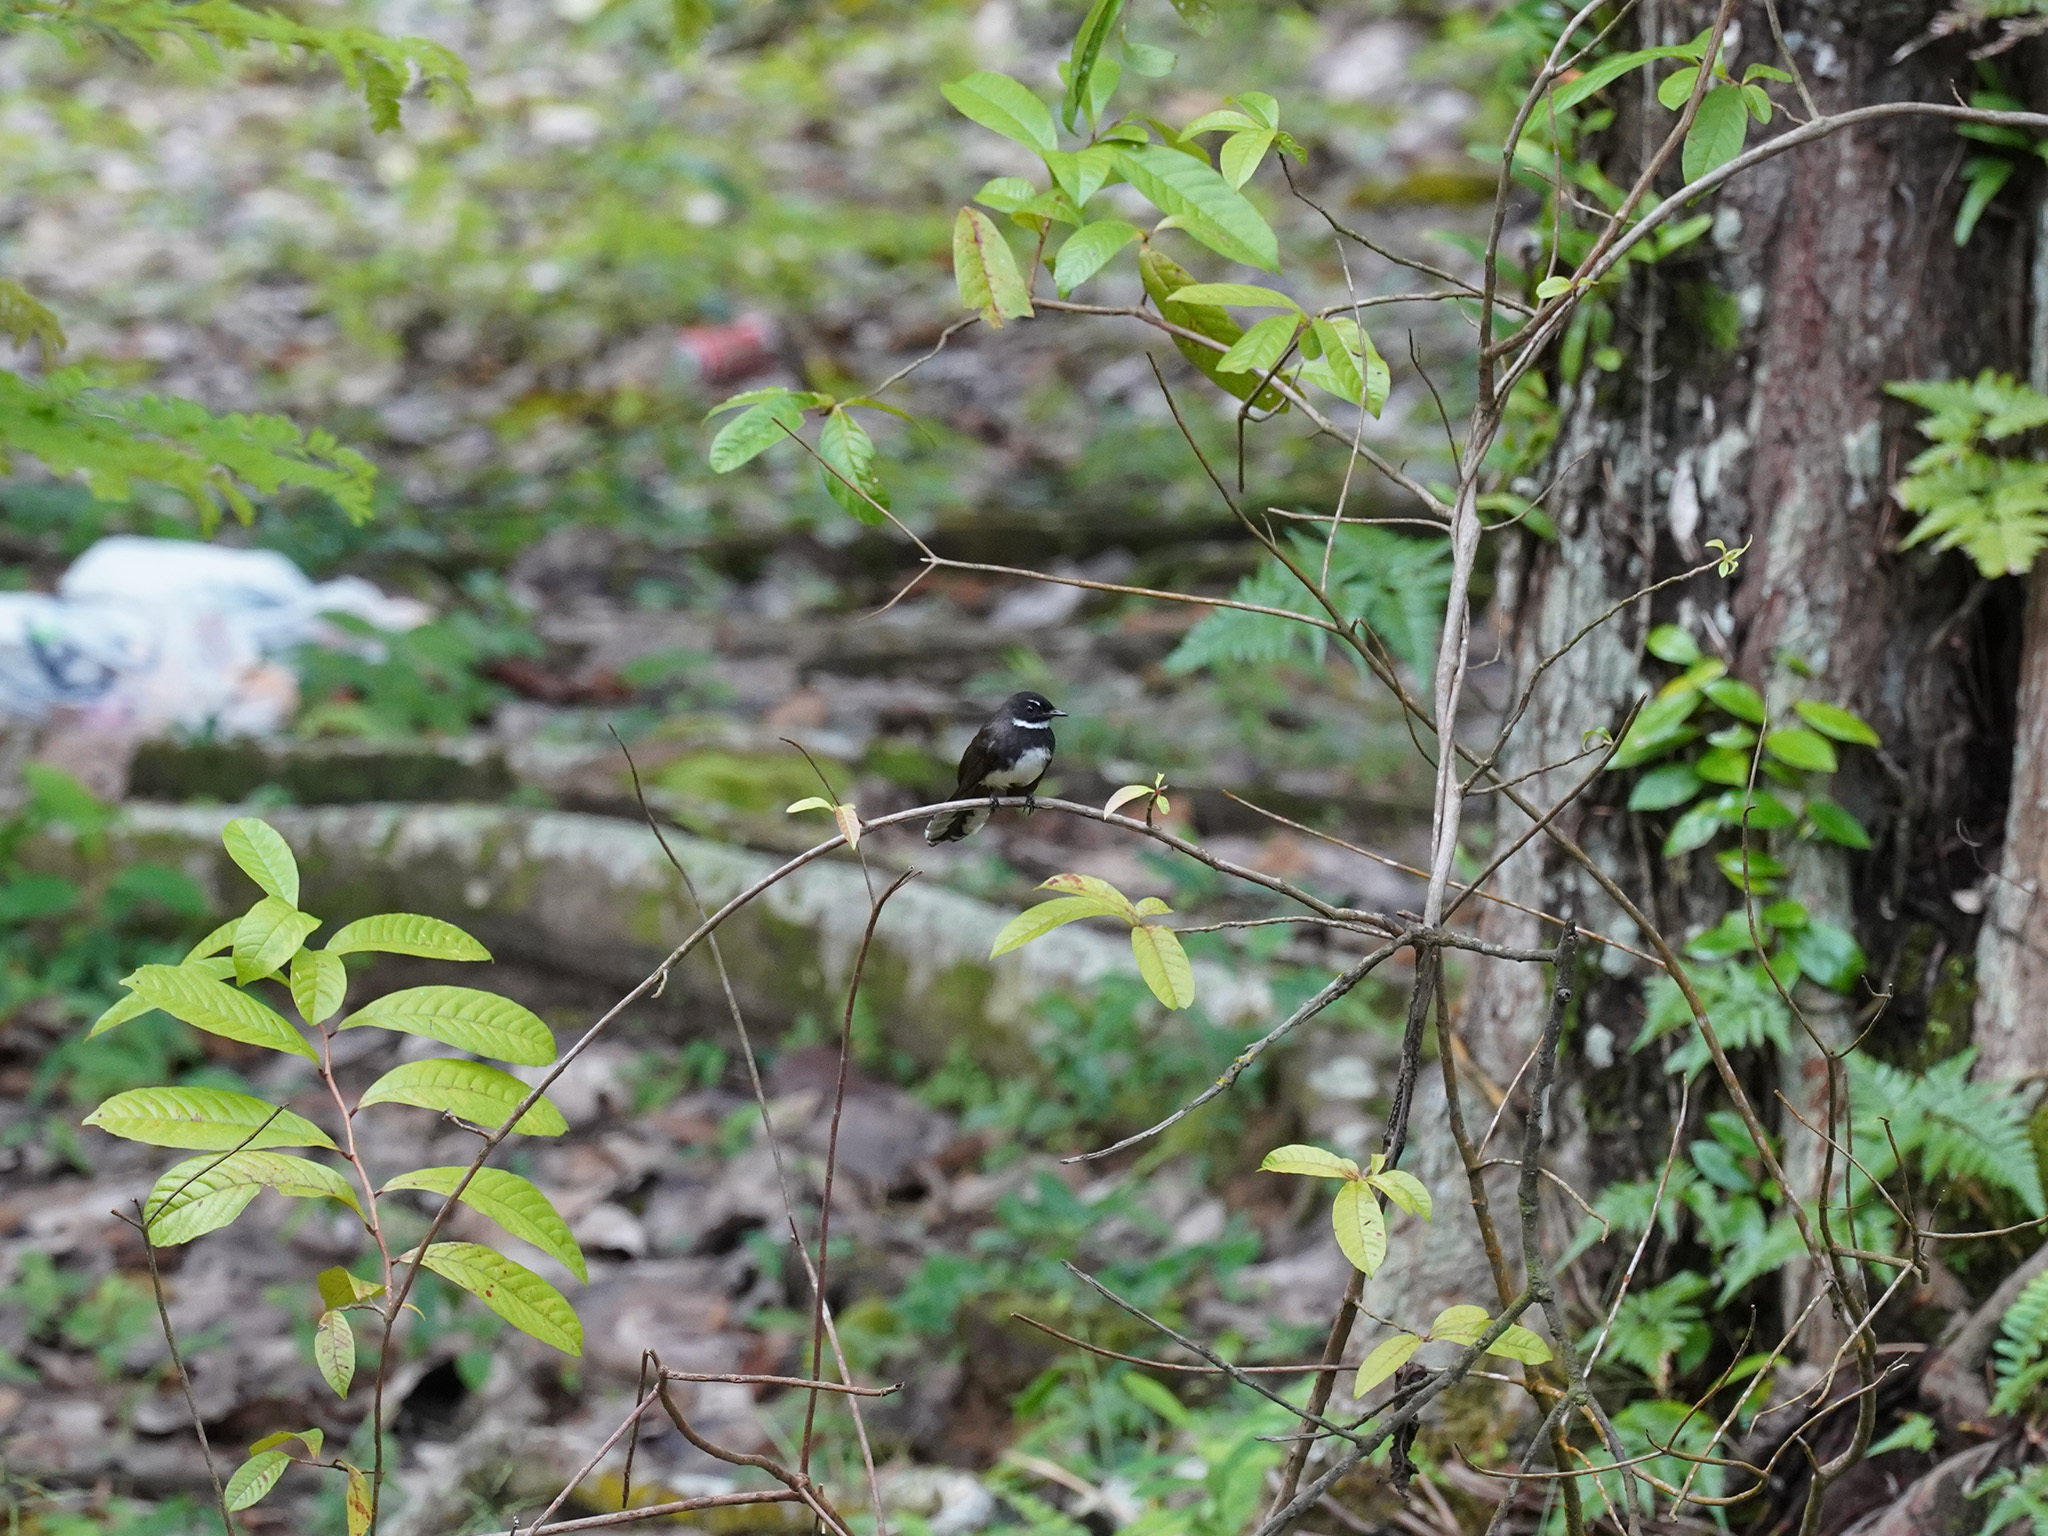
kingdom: Animalia
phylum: Chordata
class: Aves
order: Passeriformes
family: Rhipiduridae
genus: Rhipidura
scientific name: Rhipidura javanica
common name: Pied fantail
